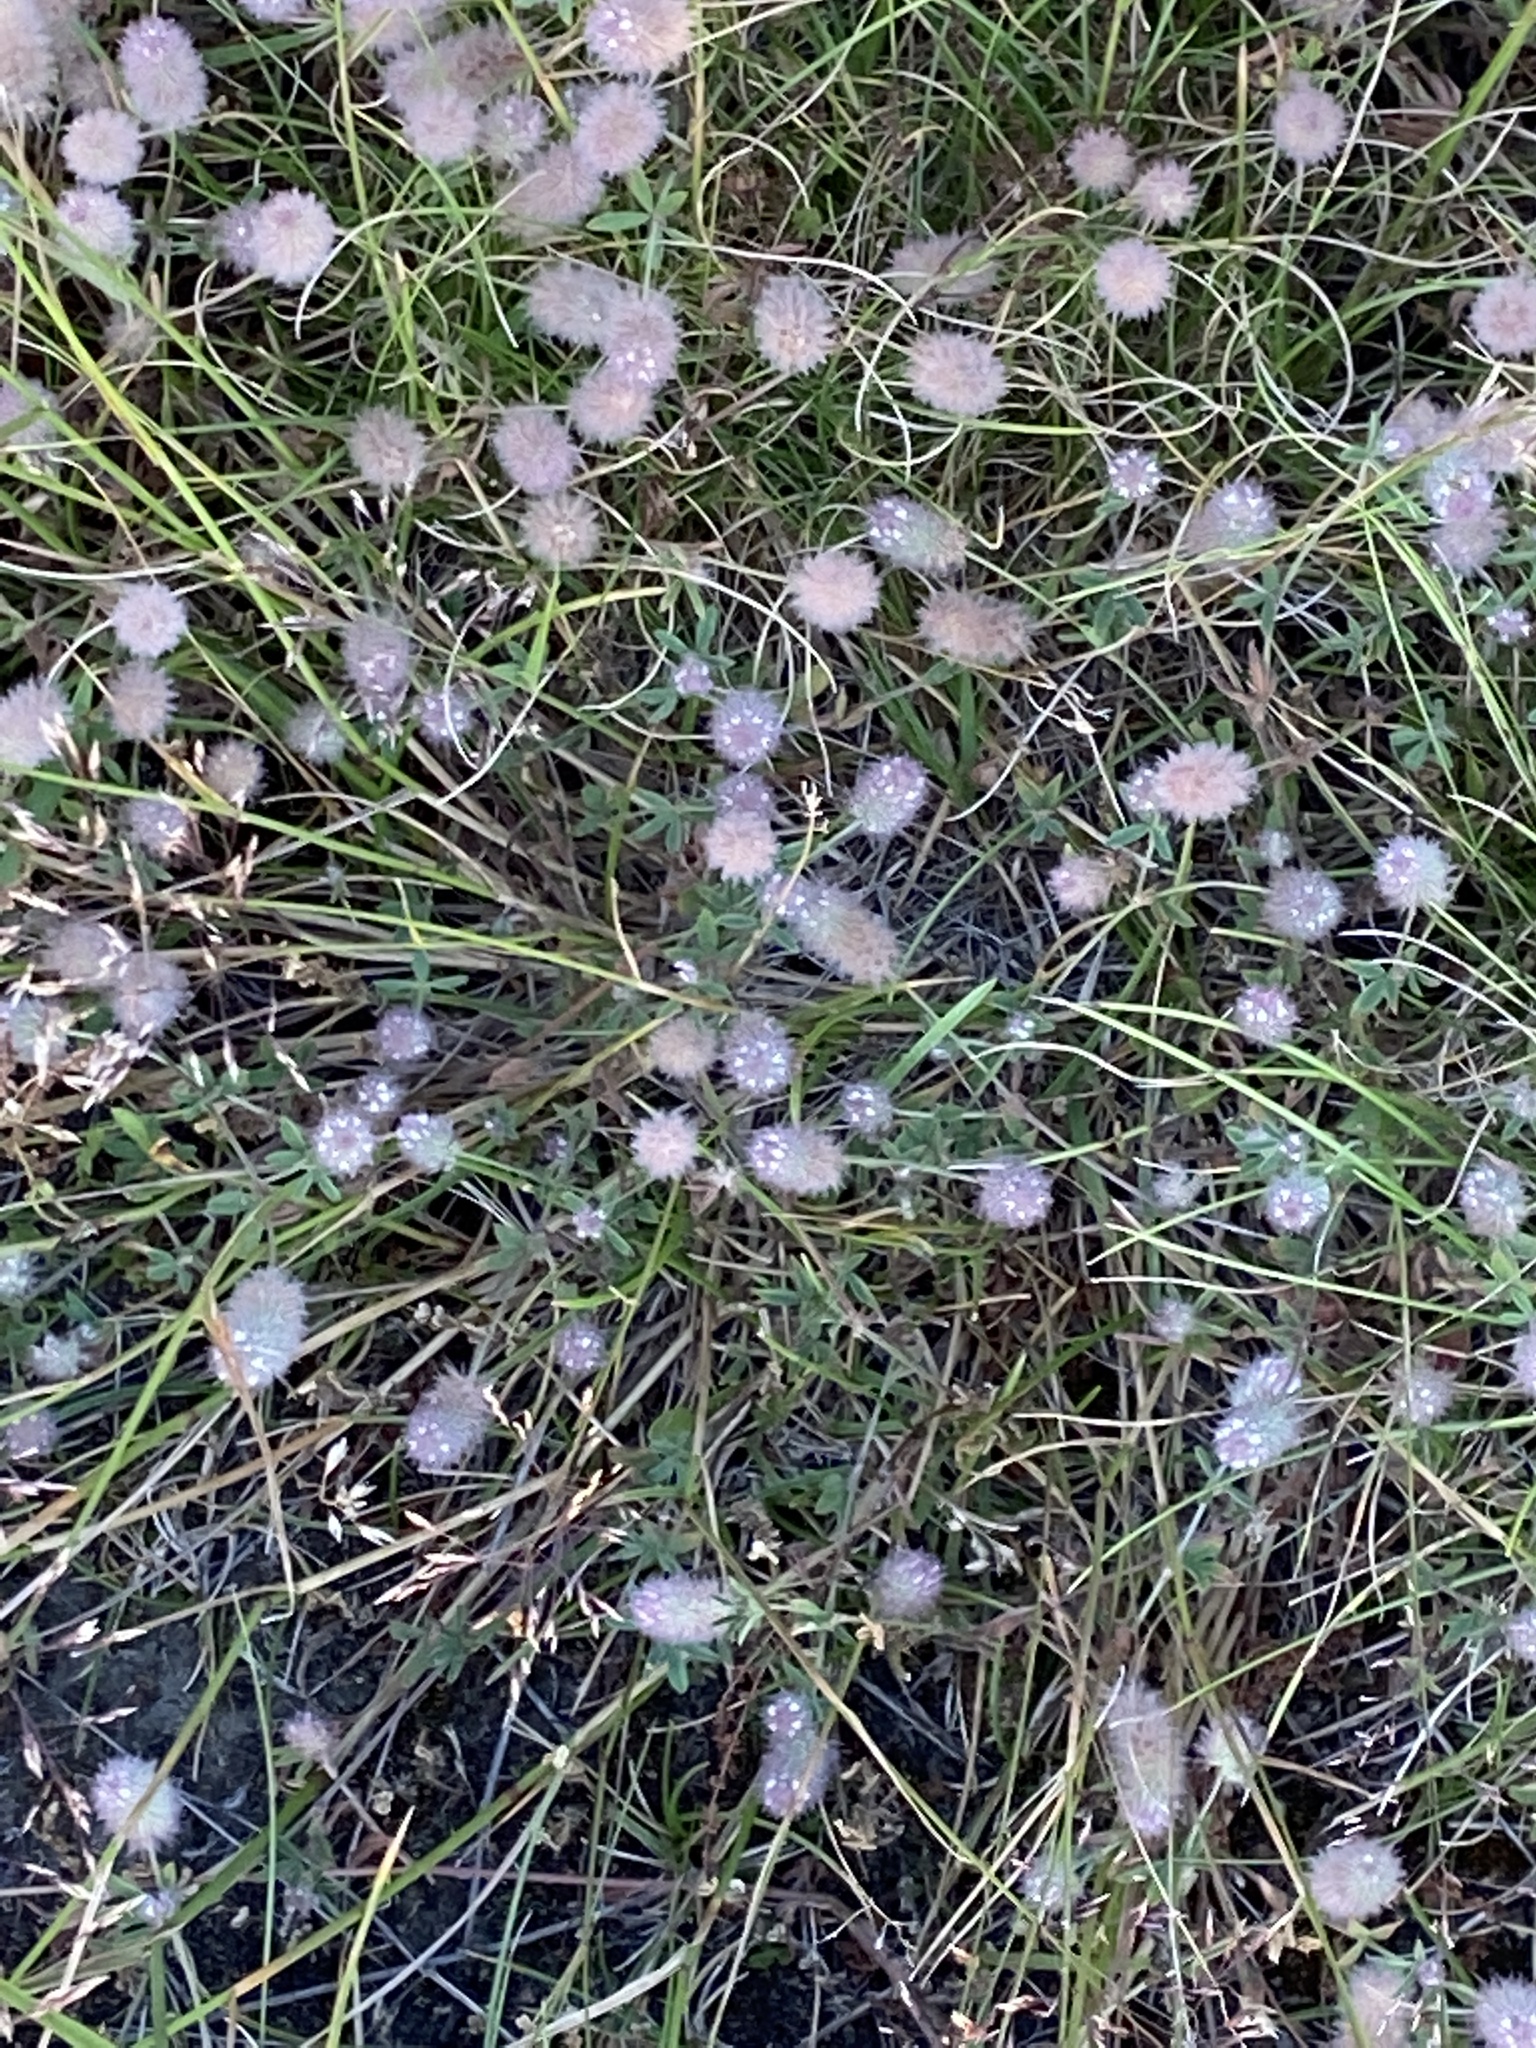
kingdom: Plantae
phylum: Tracheophyta
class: Magnoliopsida
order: Fabales
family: Fabaceae
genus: Trifolium
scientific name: Trifolium arvense
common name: Hare's-foot clover
